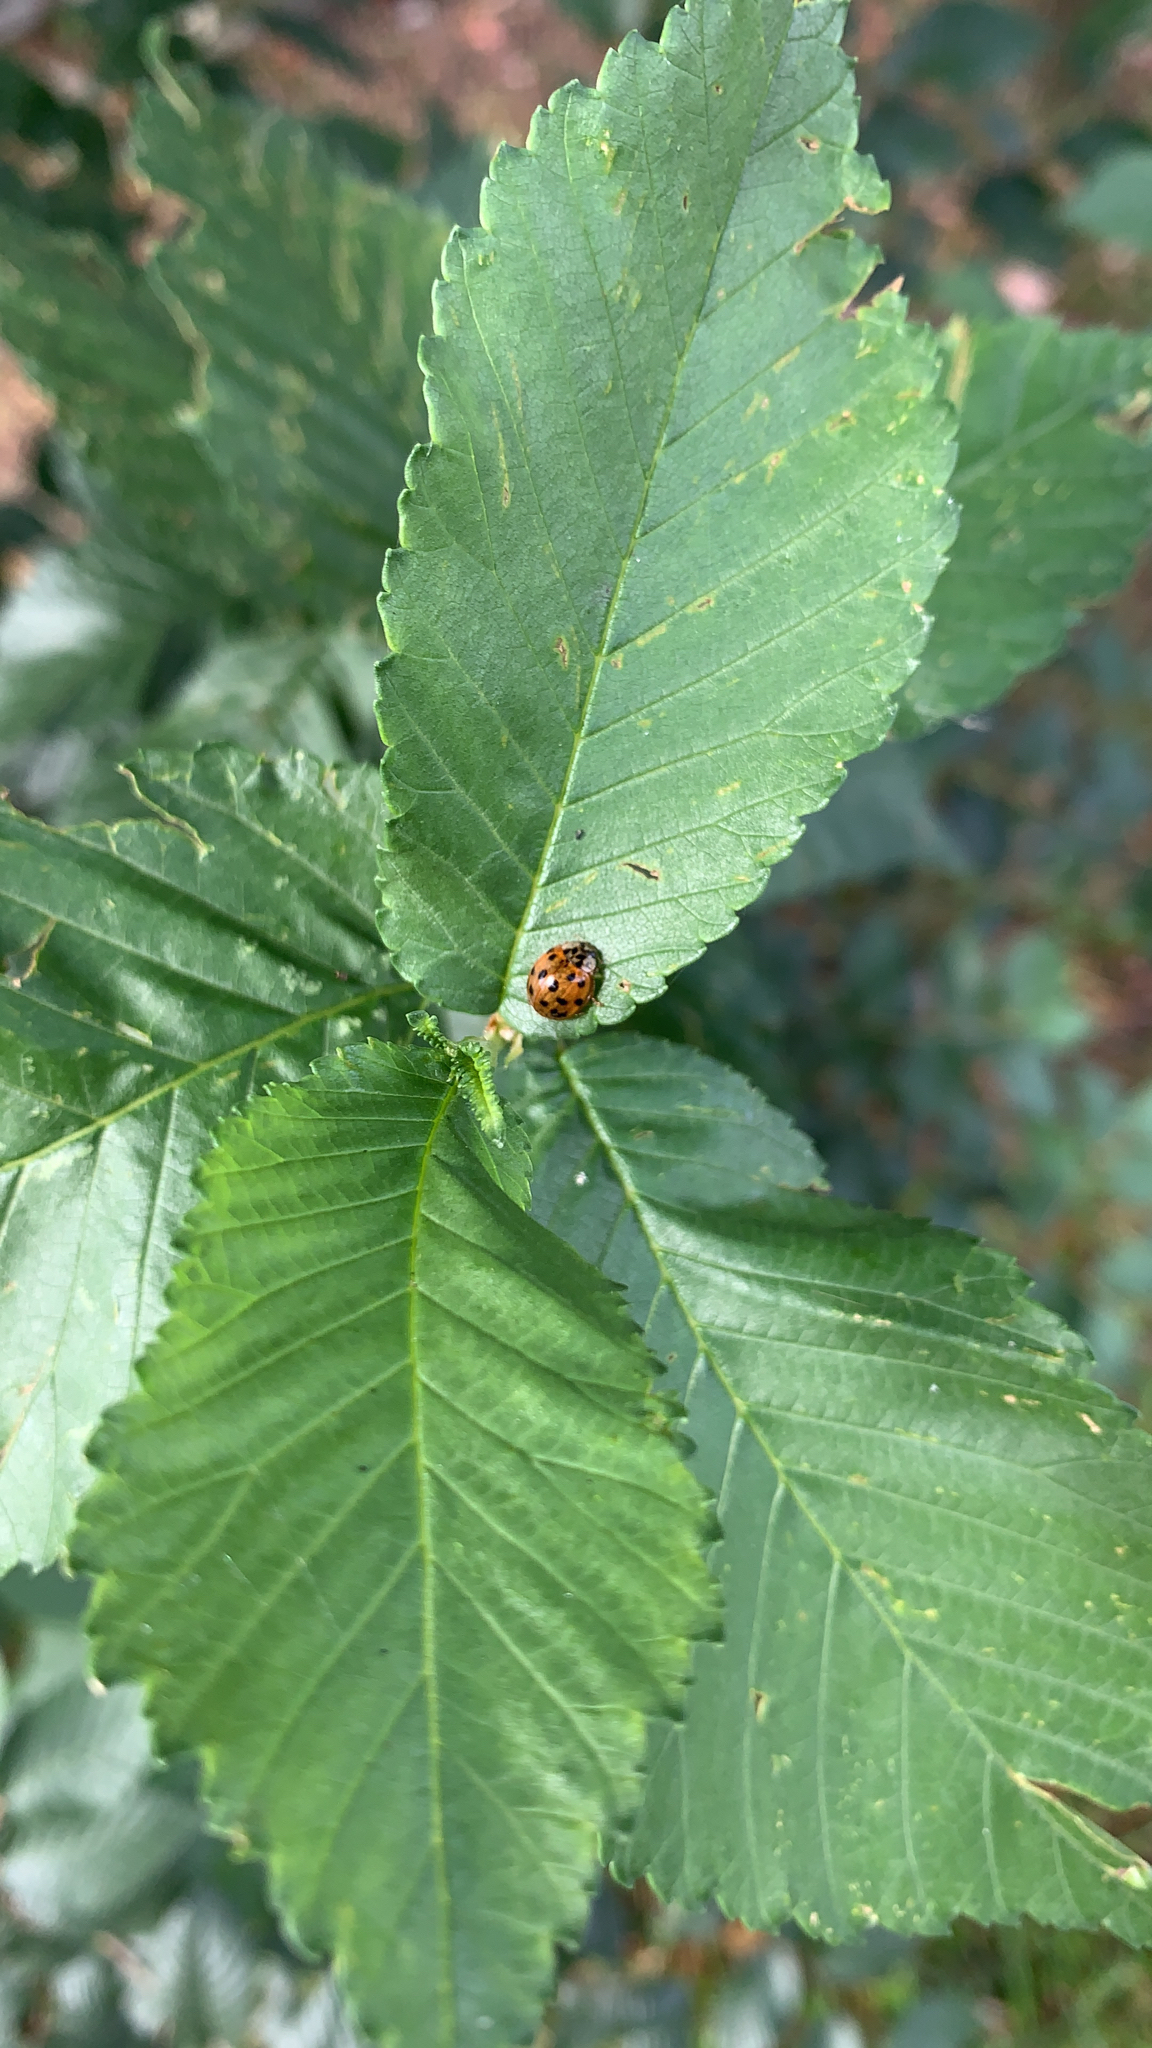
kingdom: Animalia
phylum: Arthropoda
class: Insecta
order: Coleoptera
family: Coccinellidae
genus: Harmonia
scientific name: Harmonia axyridis
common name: Harlequin ladybird
